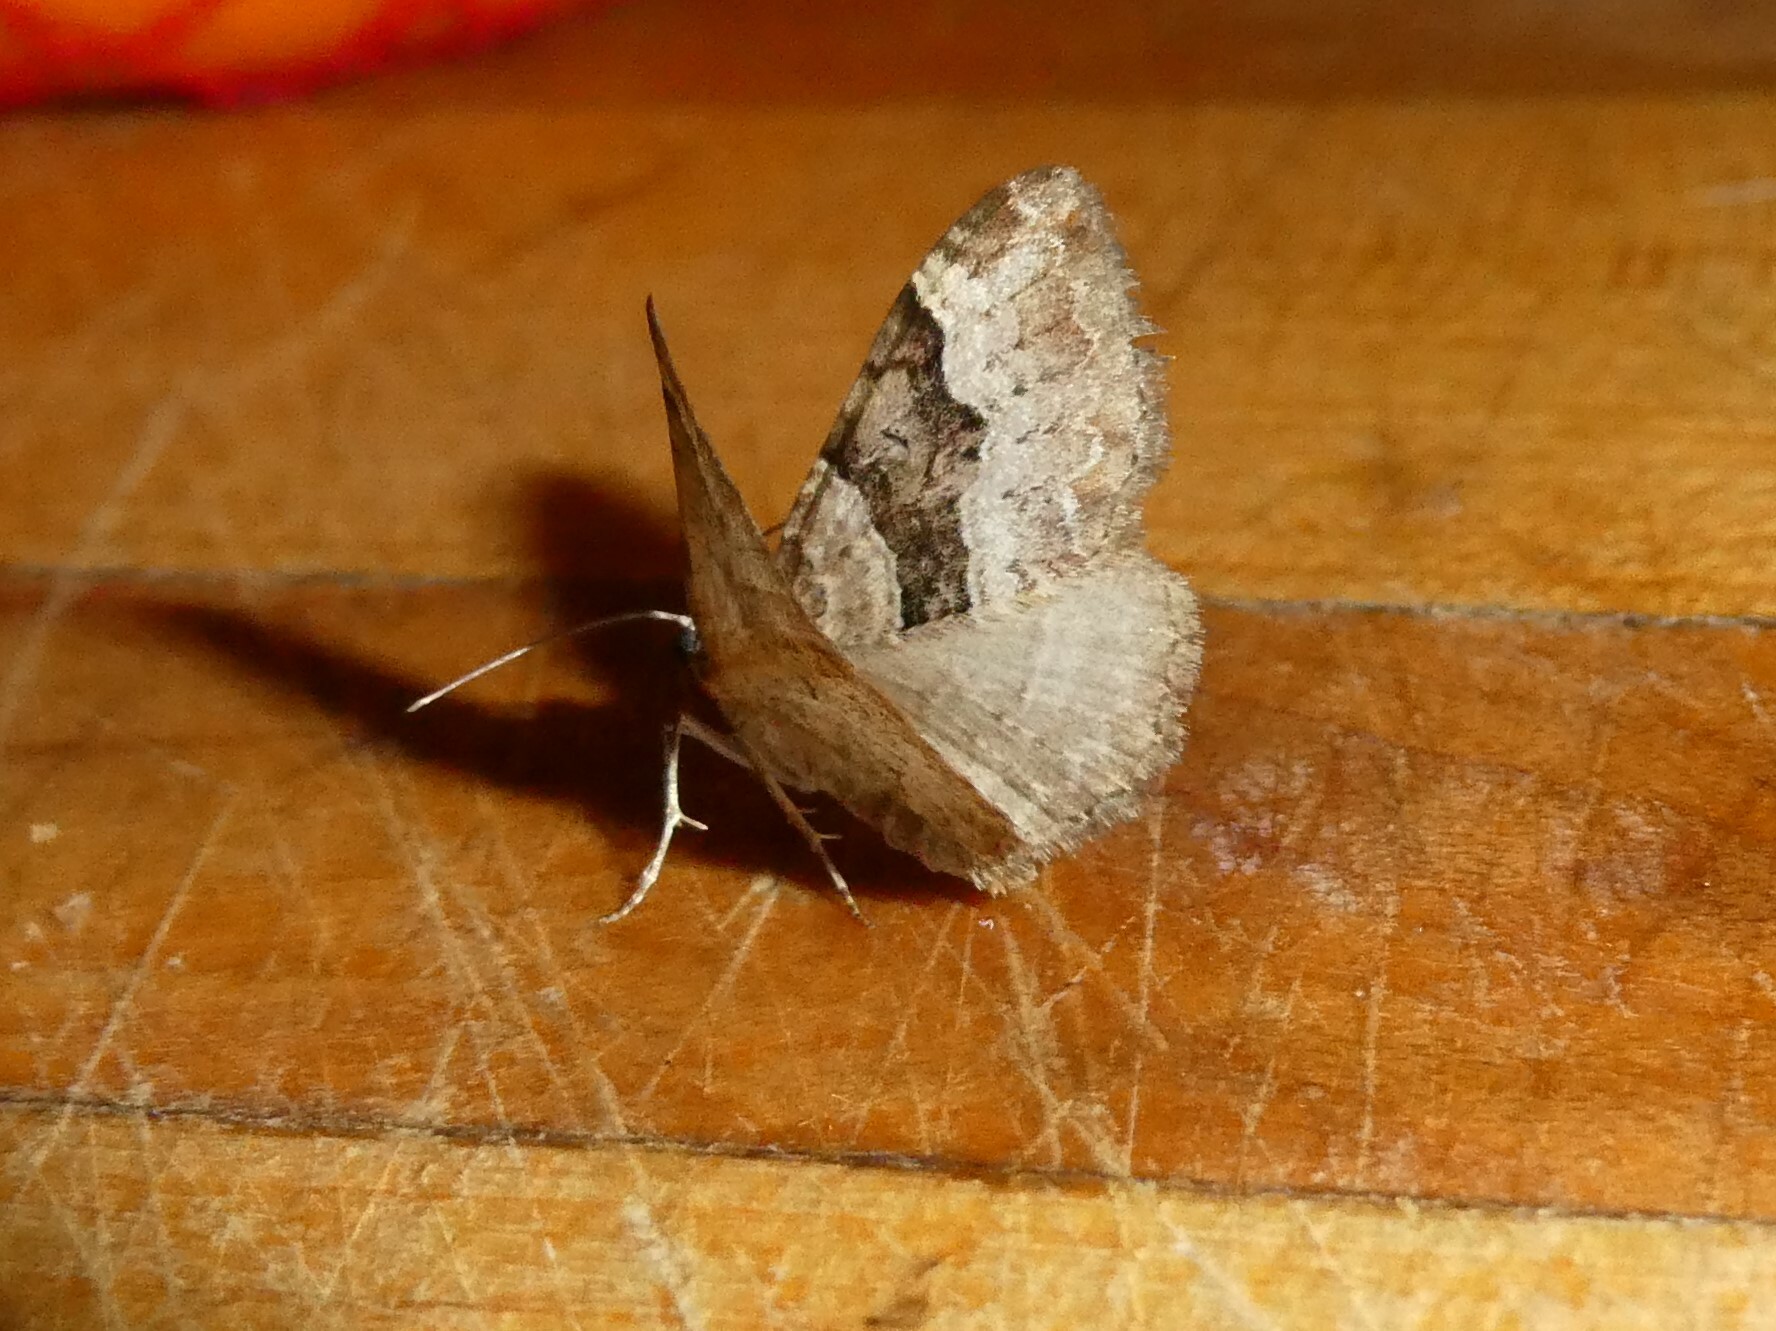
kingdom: Animalia
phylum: Arthropoda
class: Insecta
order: Lepidoptera
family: Geometridae
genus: Xanthorhoe
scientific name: Xanthorhoe lacustrata
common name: Toothed brown carpet
